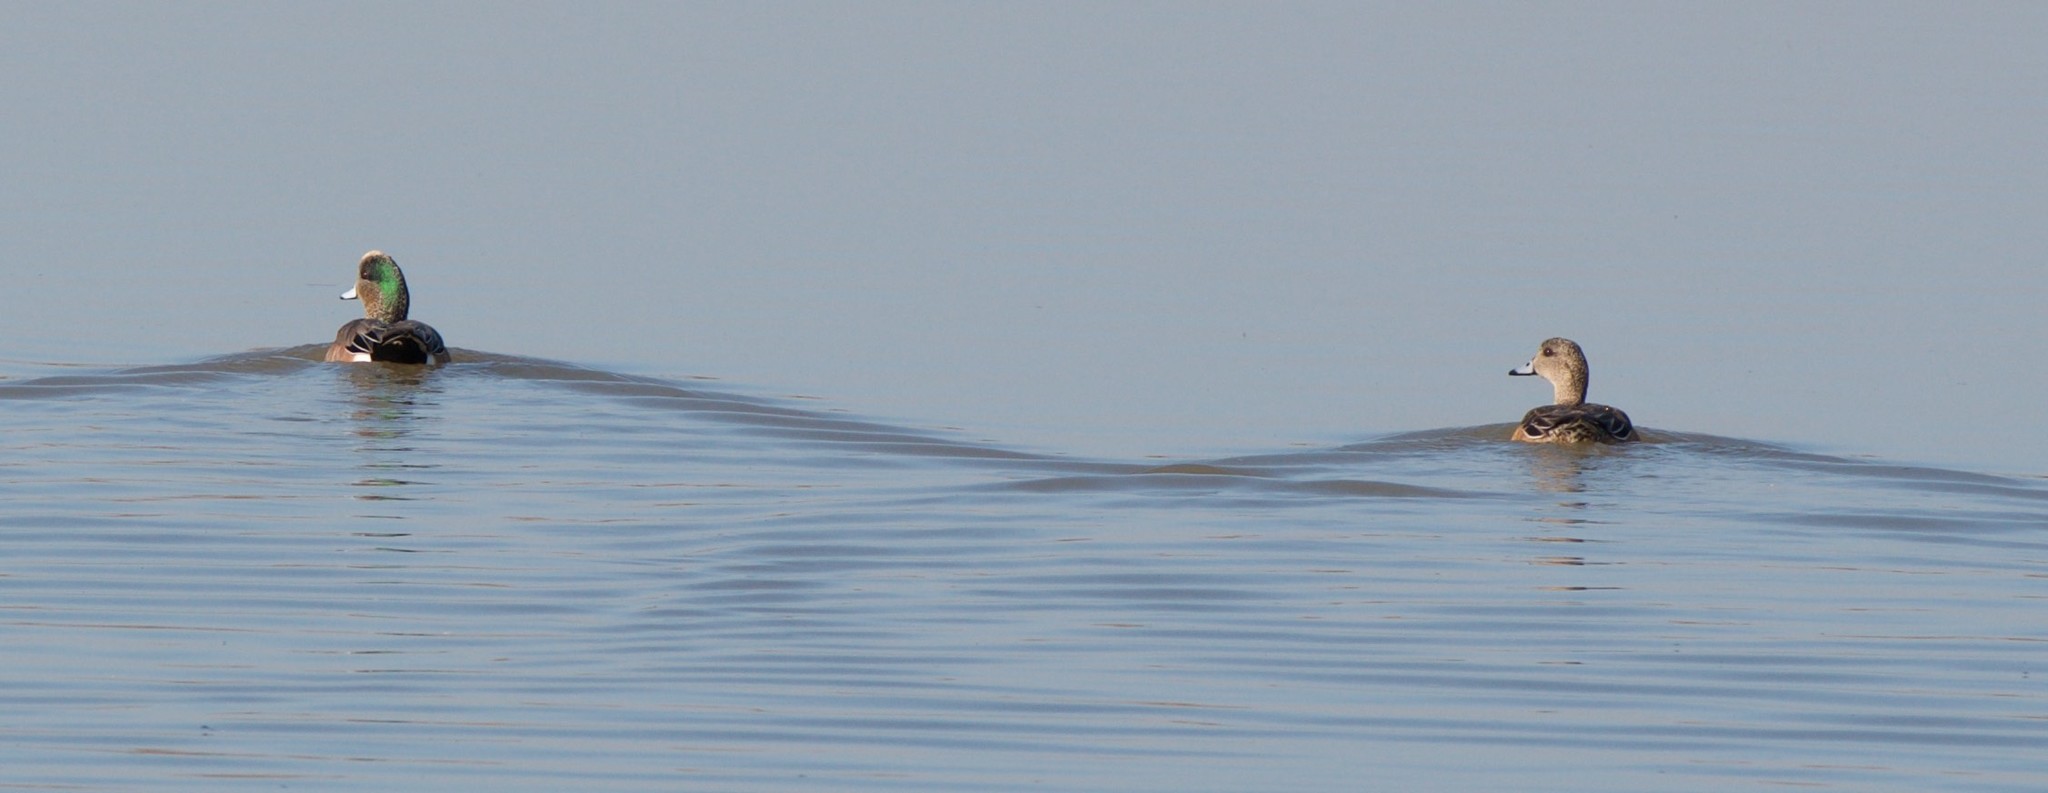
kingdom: Animalia
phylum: Chordata
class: Aves
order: Anseriformes
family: Anatidae
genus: Anas
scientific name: Anas crecca
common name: Eurasian teal
